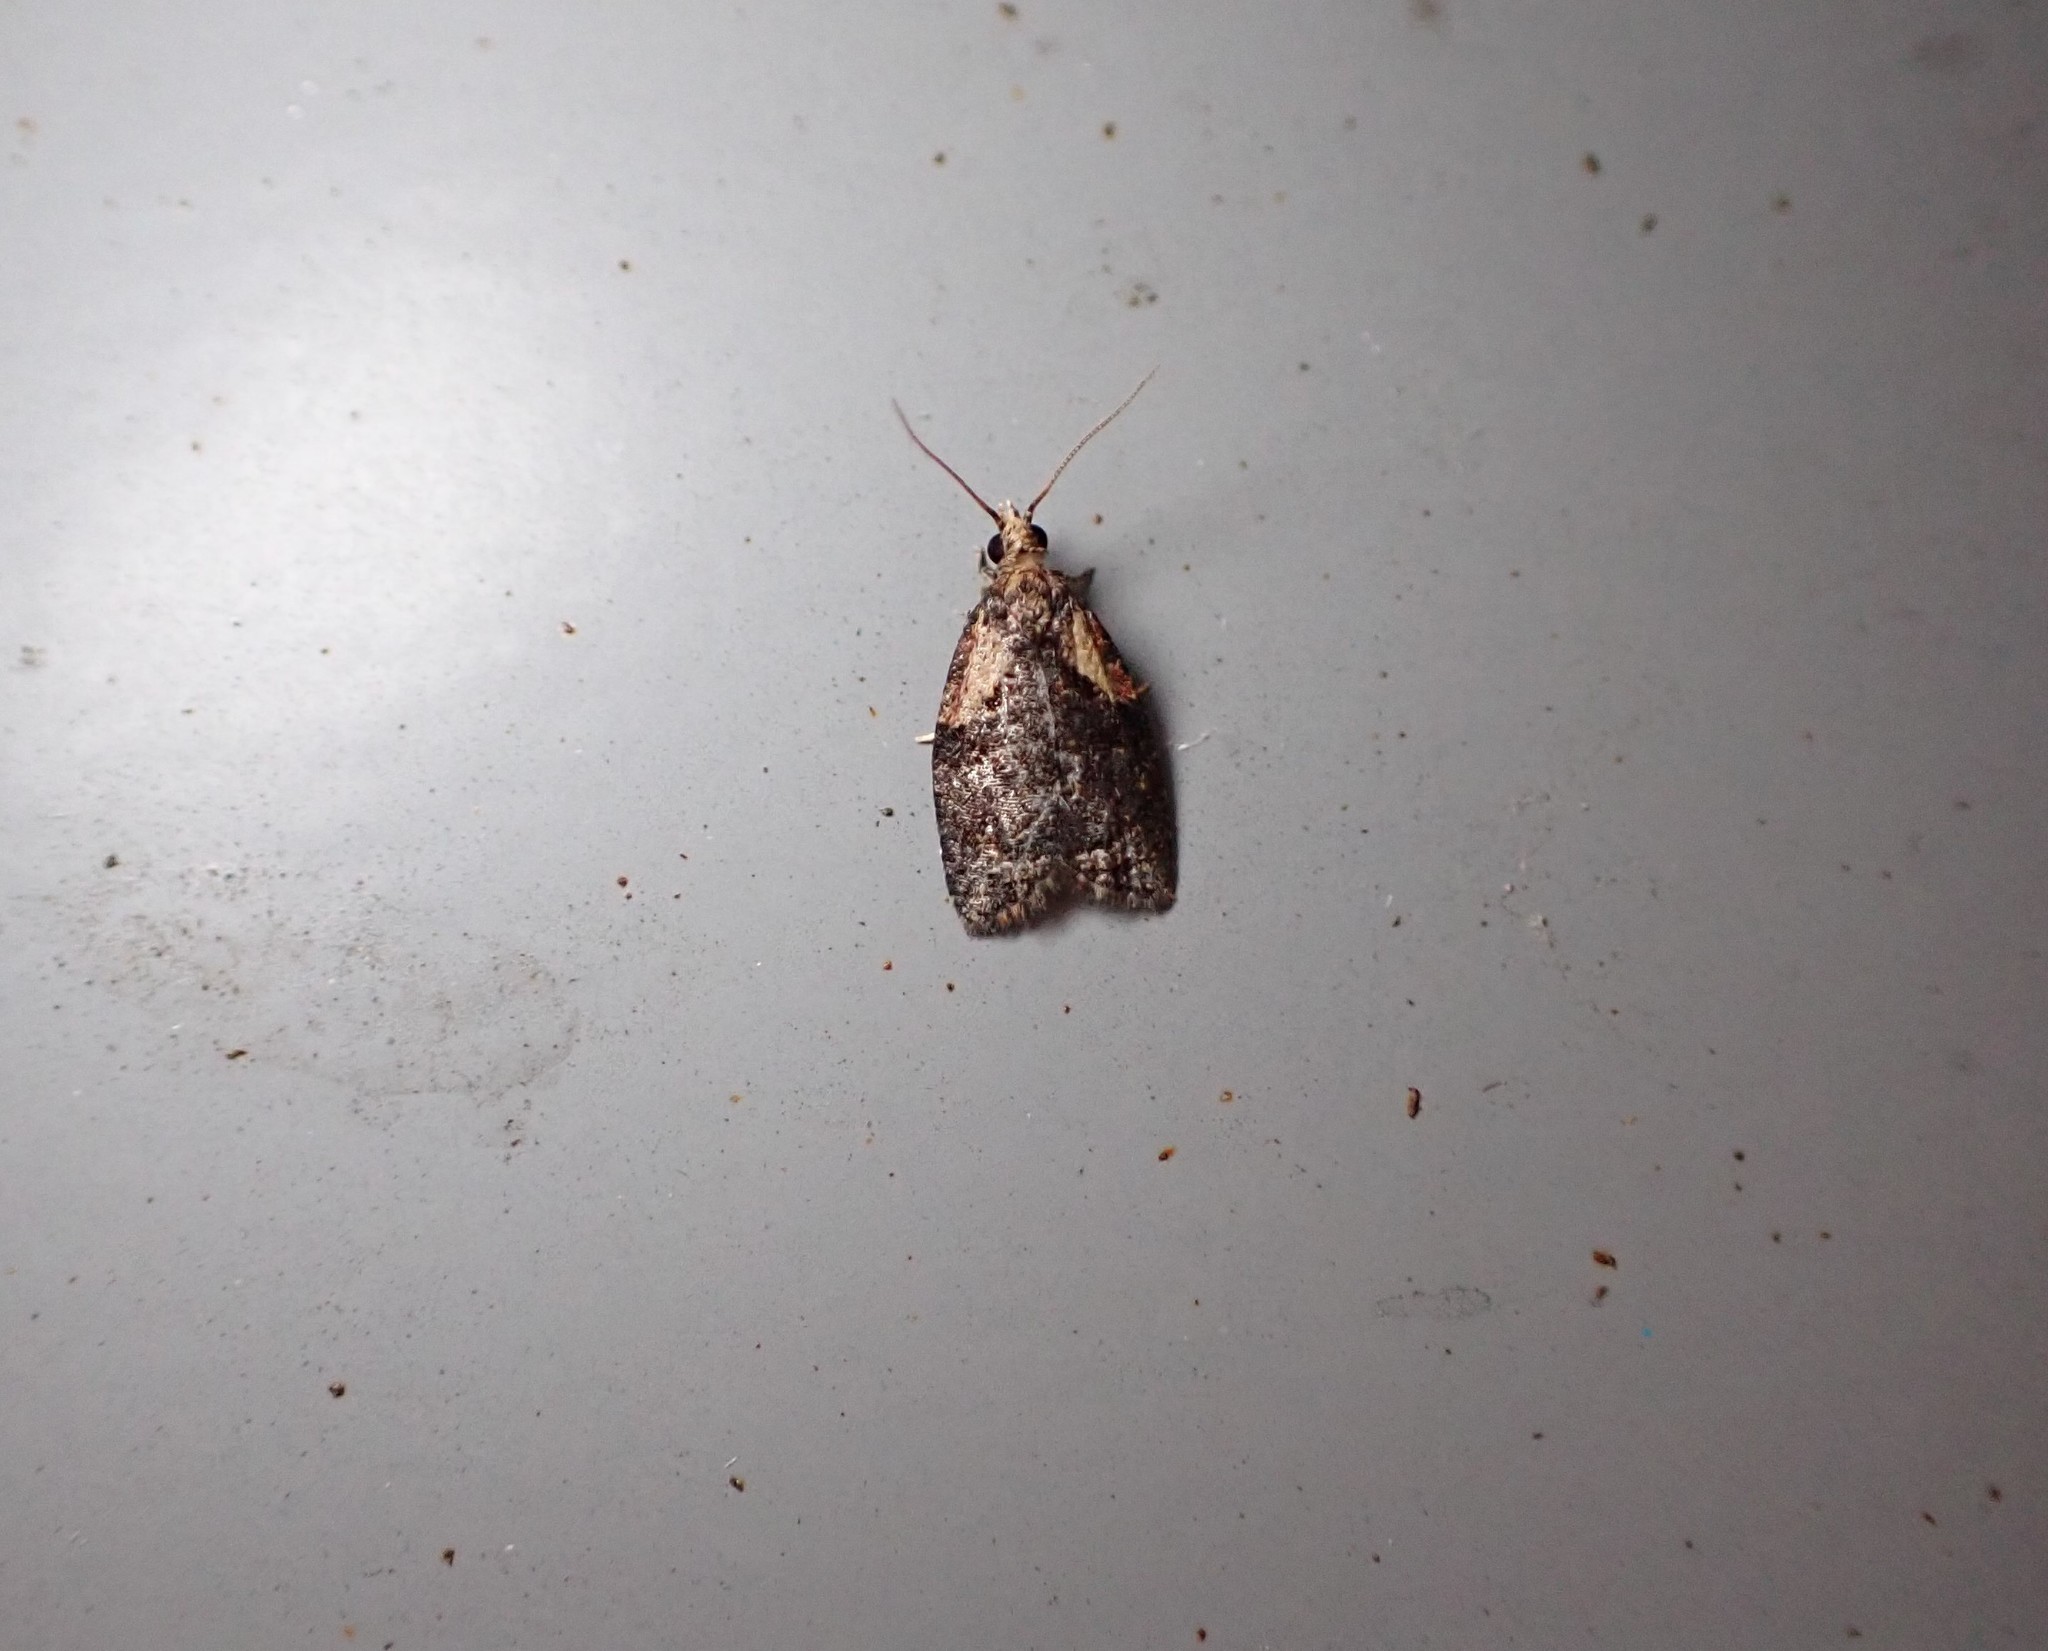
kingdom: Animalia
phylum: Arthropoda
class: Insecta
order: Lepidoptera
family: Tortricidae
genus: Capua
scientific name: Capua intractana
